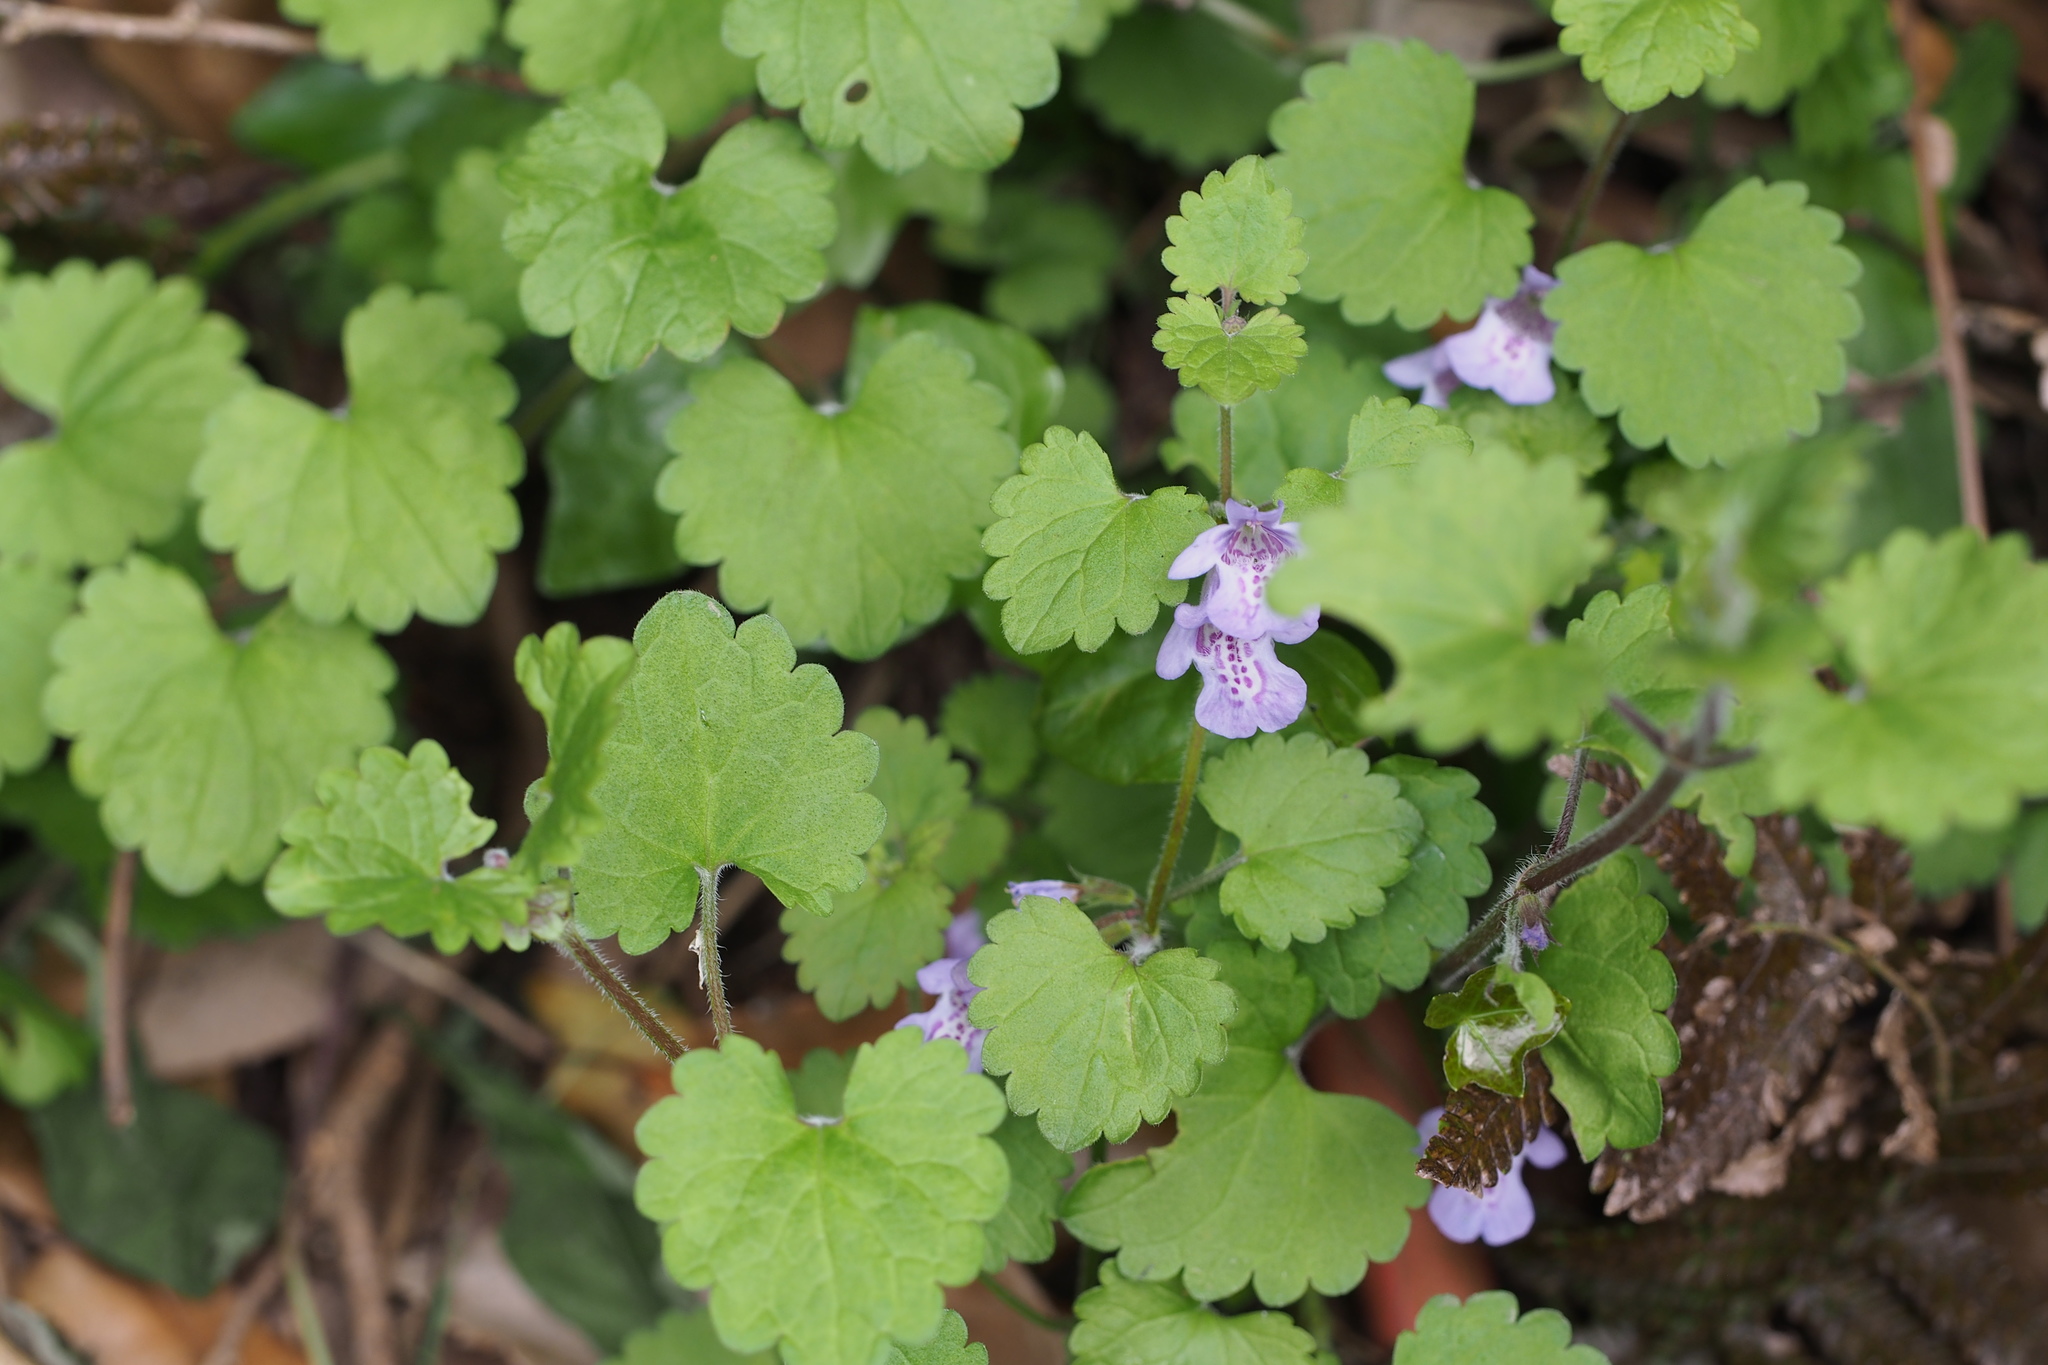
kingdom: Plantae
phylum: Tracheophyta
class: Magnoliopsida
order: Lamiales
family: Lamiaceae
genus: Glechoma
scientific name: Glechoma grandis
